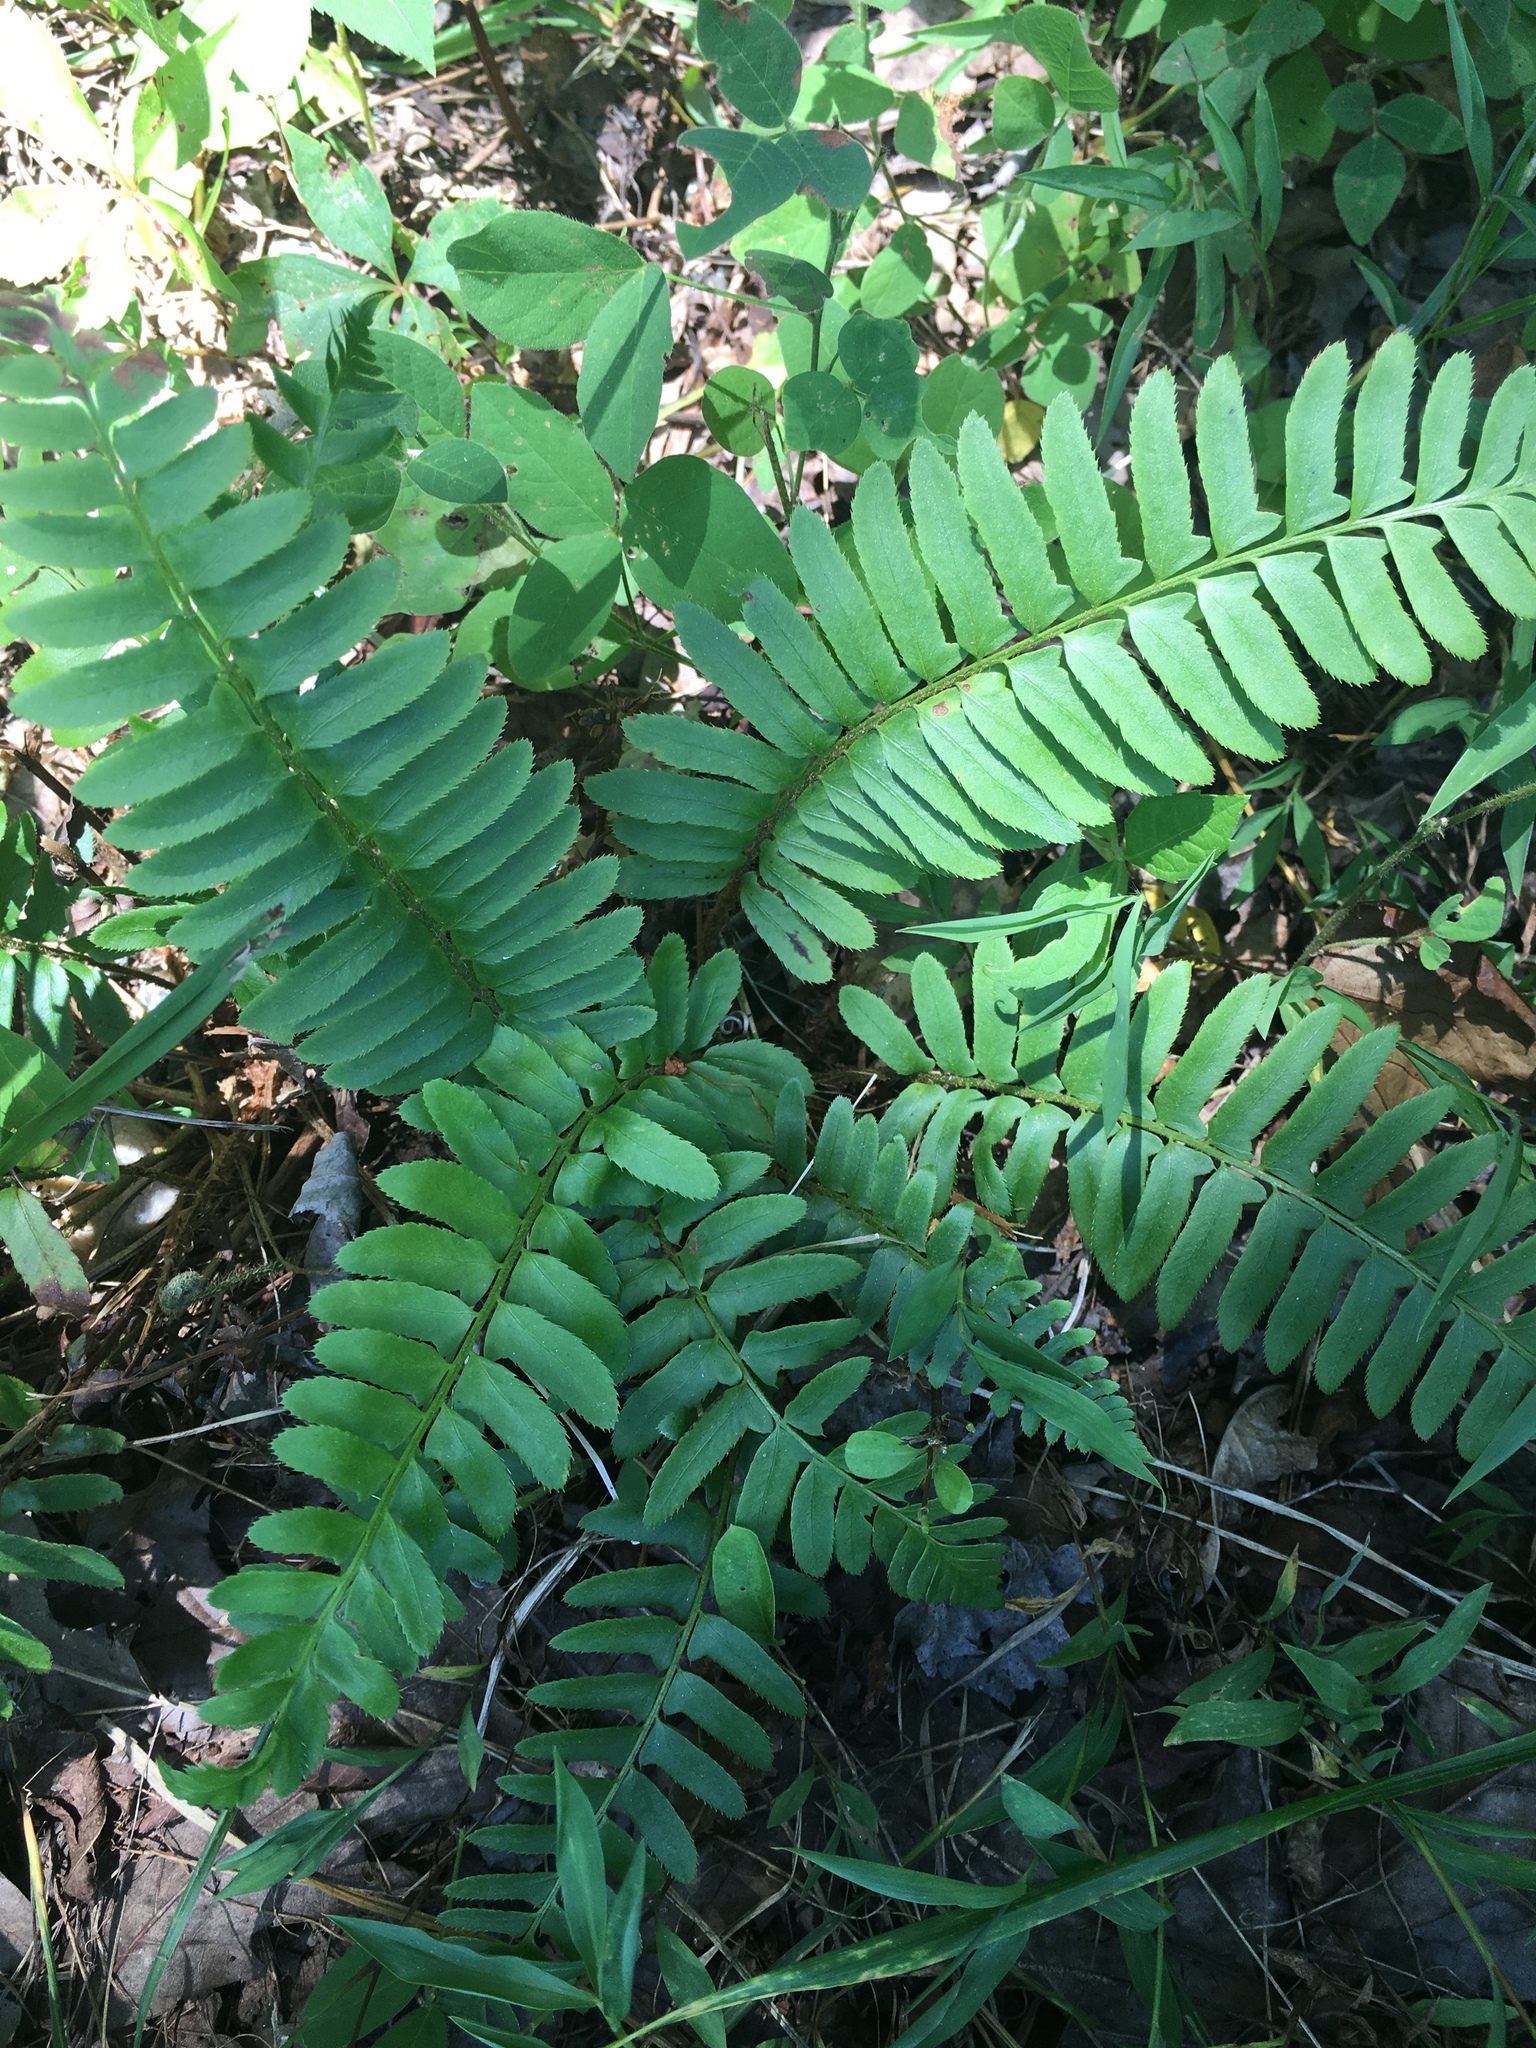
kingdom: Plantae
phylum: Tracheophyta
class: Polypodiopsida
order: Polypodiales
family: Dryopteridaceae
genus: Polystichum
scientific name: Polystichum acrostichoides
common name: Christmas fern
